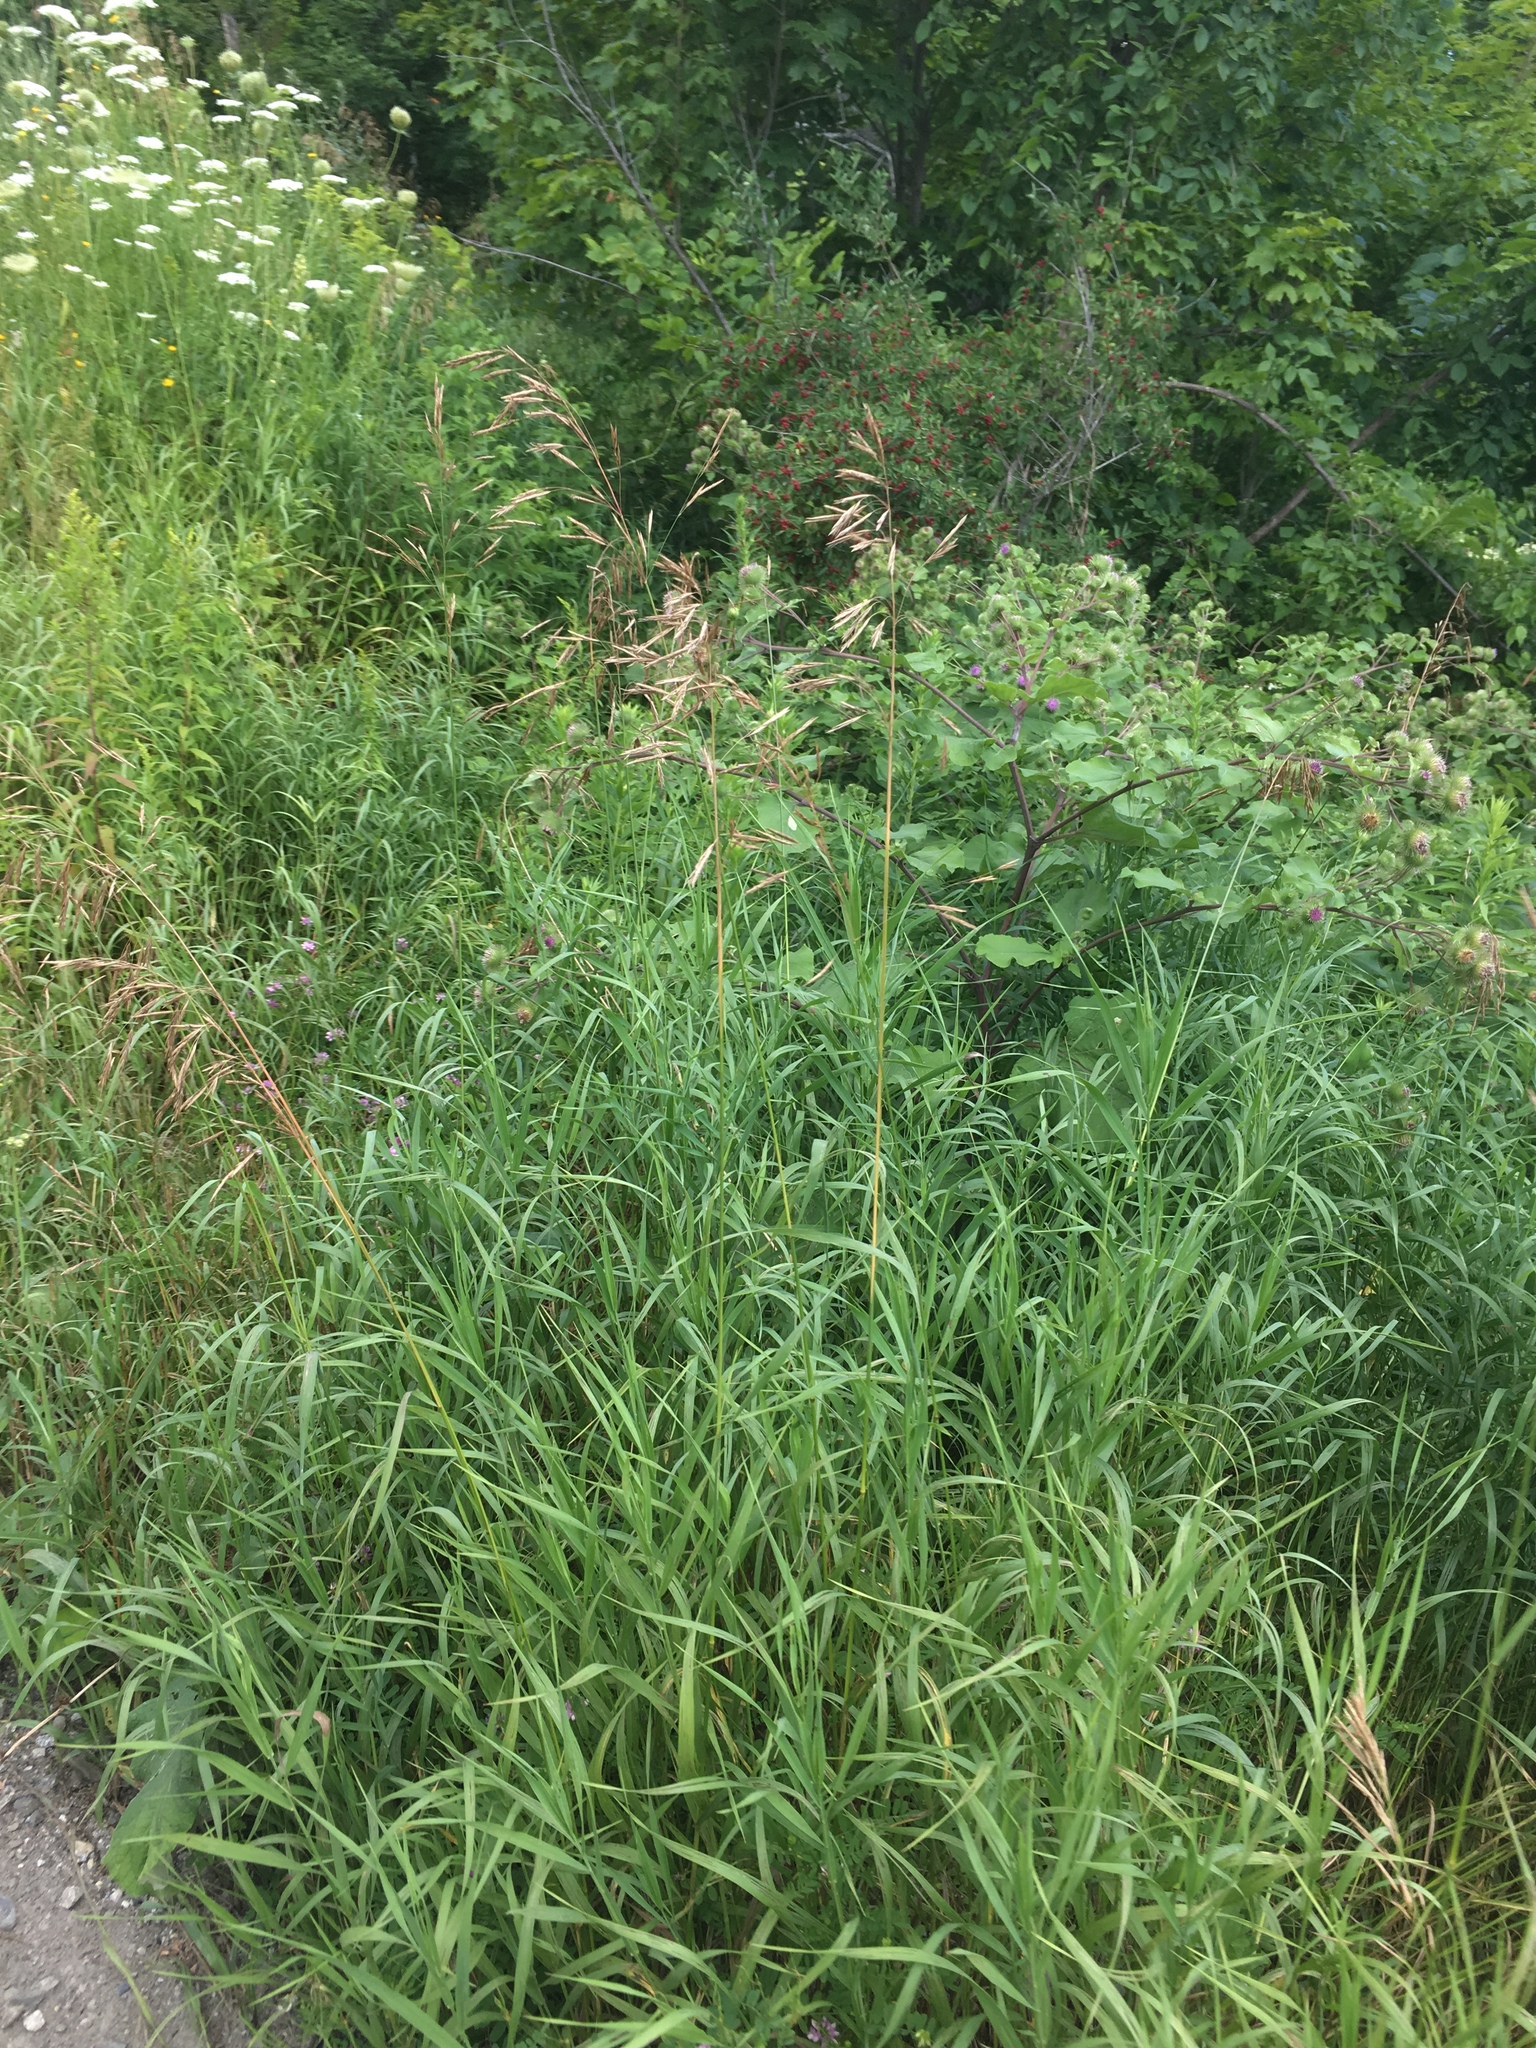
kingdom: Plantae
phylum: Tracheophyta
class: Liliopsida
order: Poales
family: Poaceae
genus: Bromus
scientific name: Bromus inermis
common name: Smooth brome
